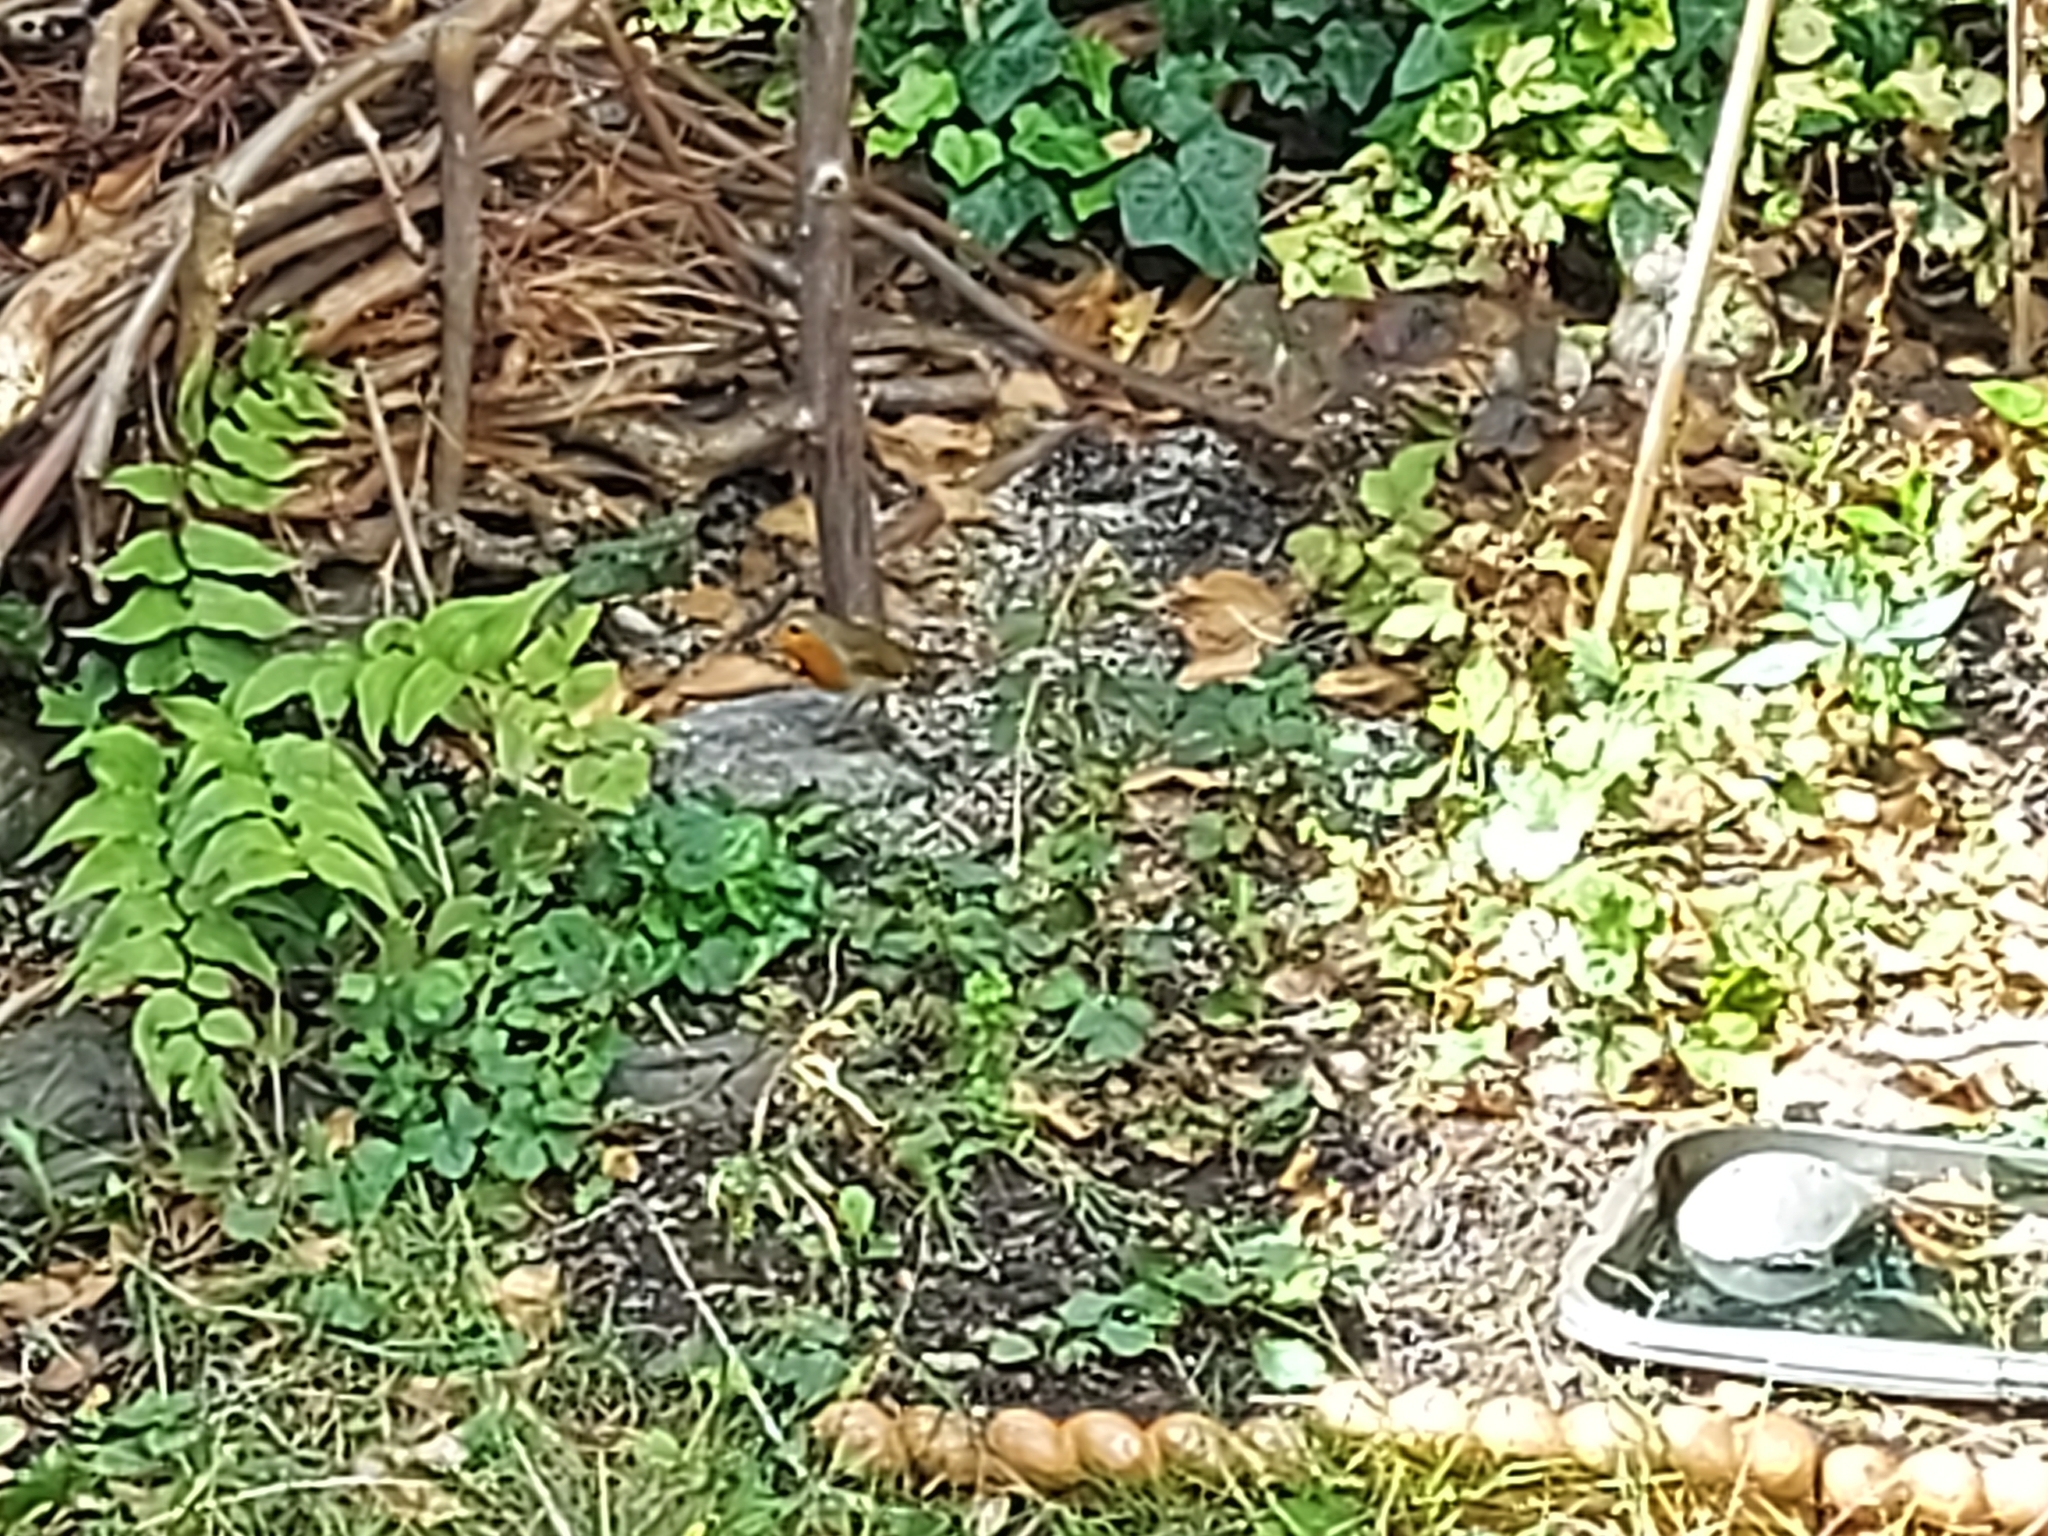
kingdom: Animalia
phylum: Chordata
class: Aves
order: Passeriformes
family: Muscicapidae
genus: Erithacus
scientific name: Erithacus rubecula
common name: European robin
